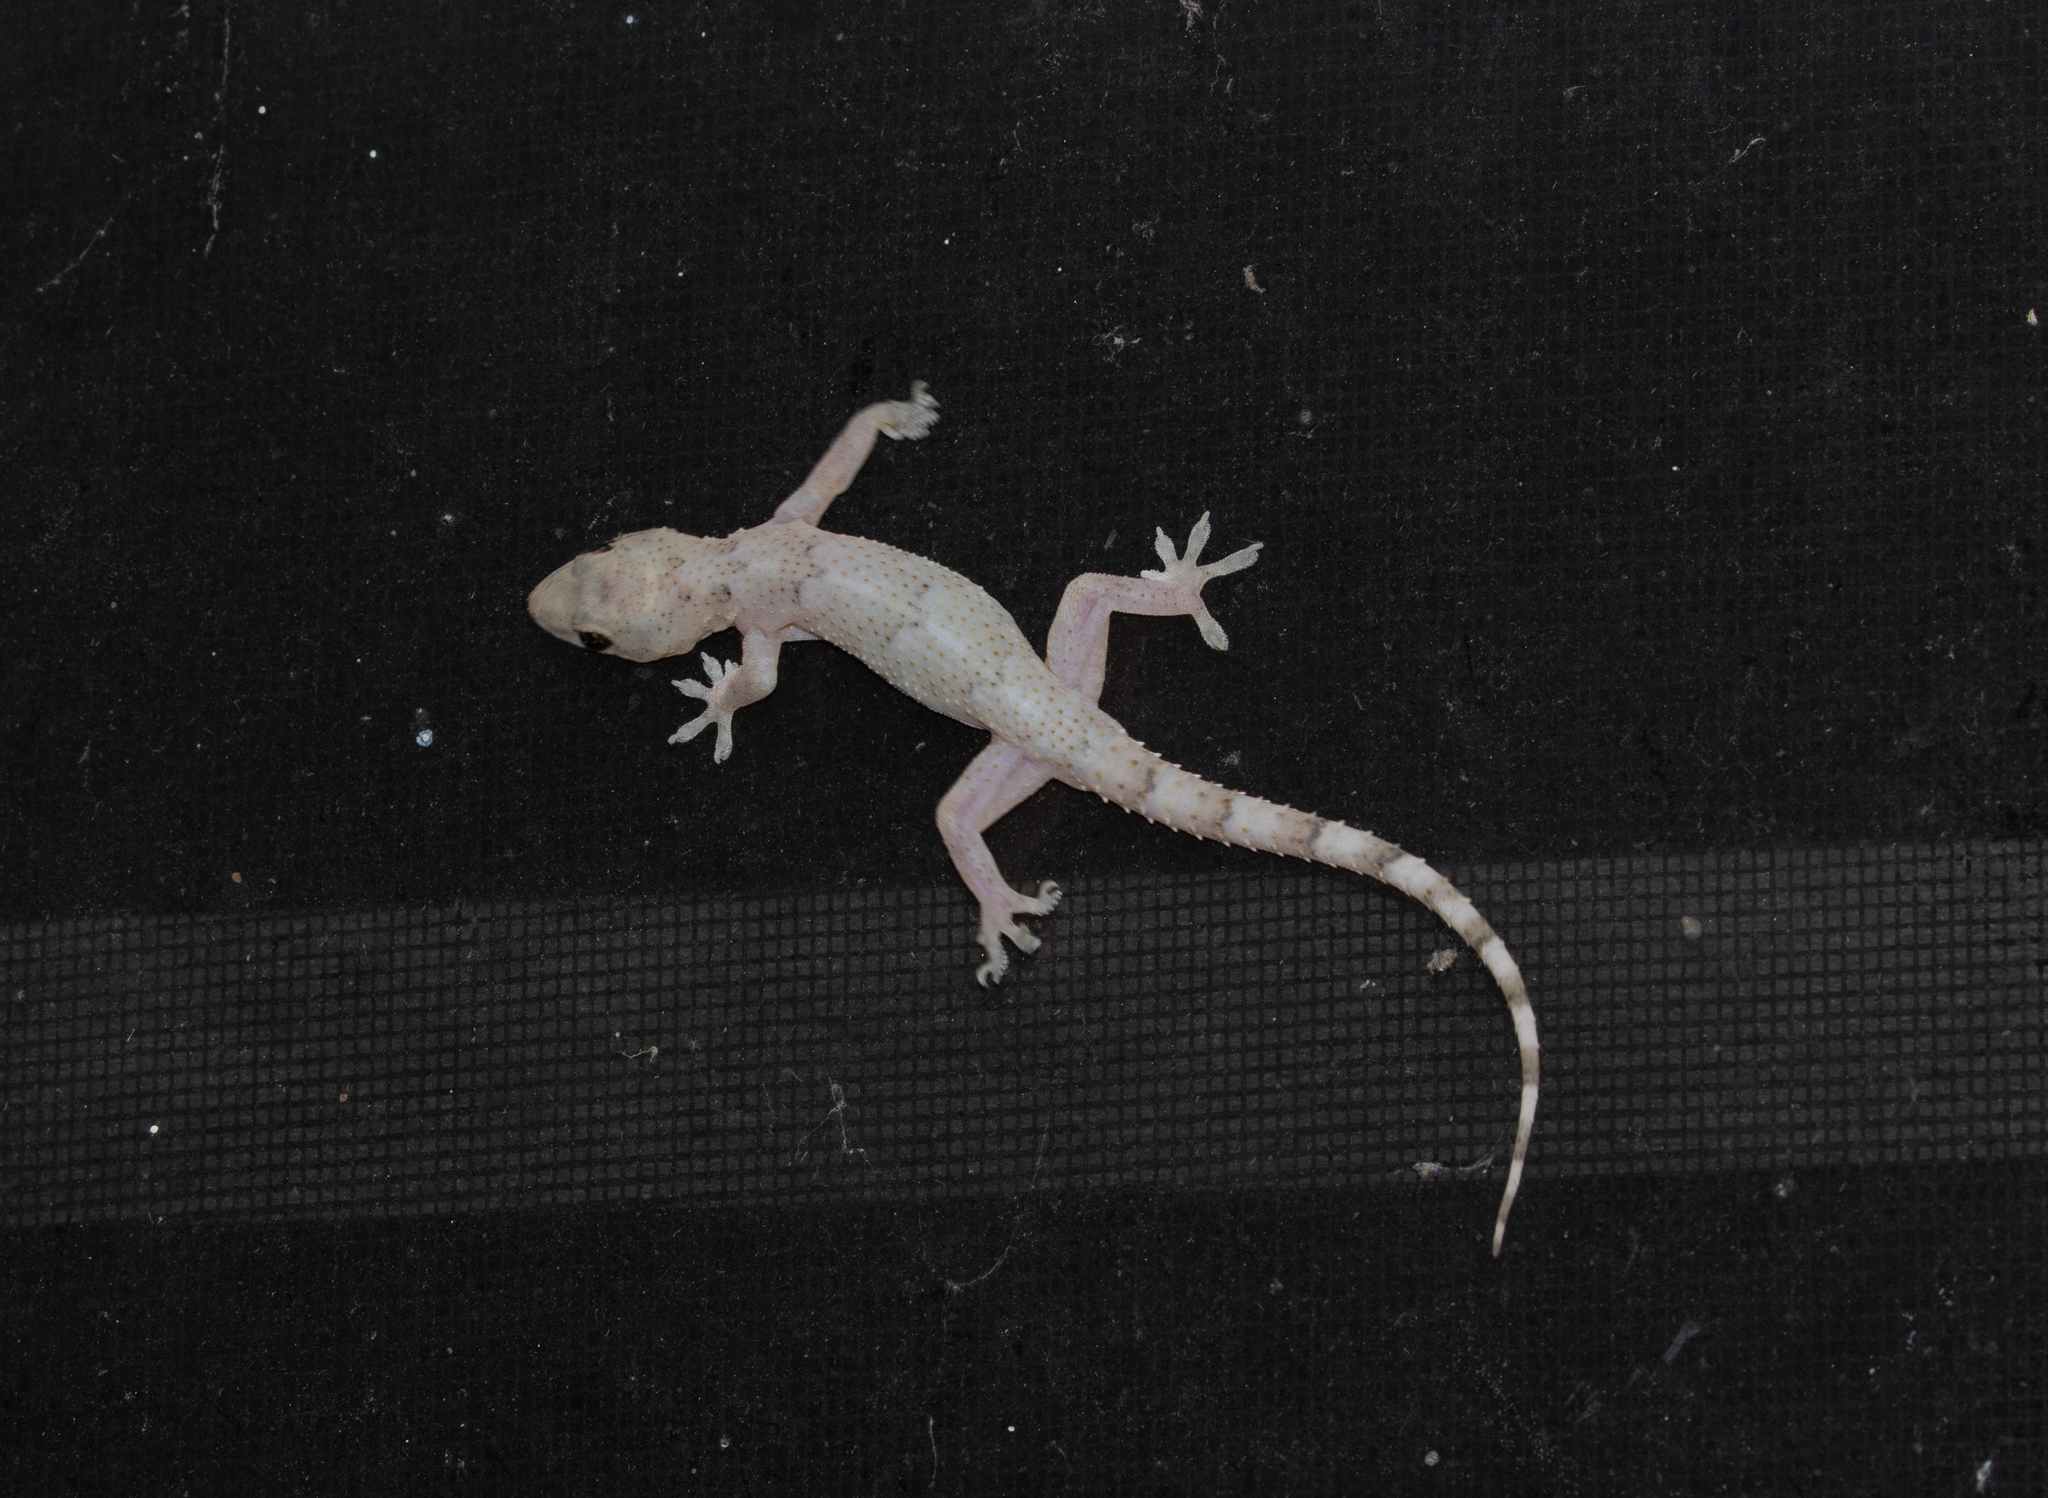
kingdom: Animalia
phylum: Chordata
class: Squamata
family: Gekkonidae
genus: Hemidactylus
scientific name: Hemidactylus mabouia
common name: House gecko
